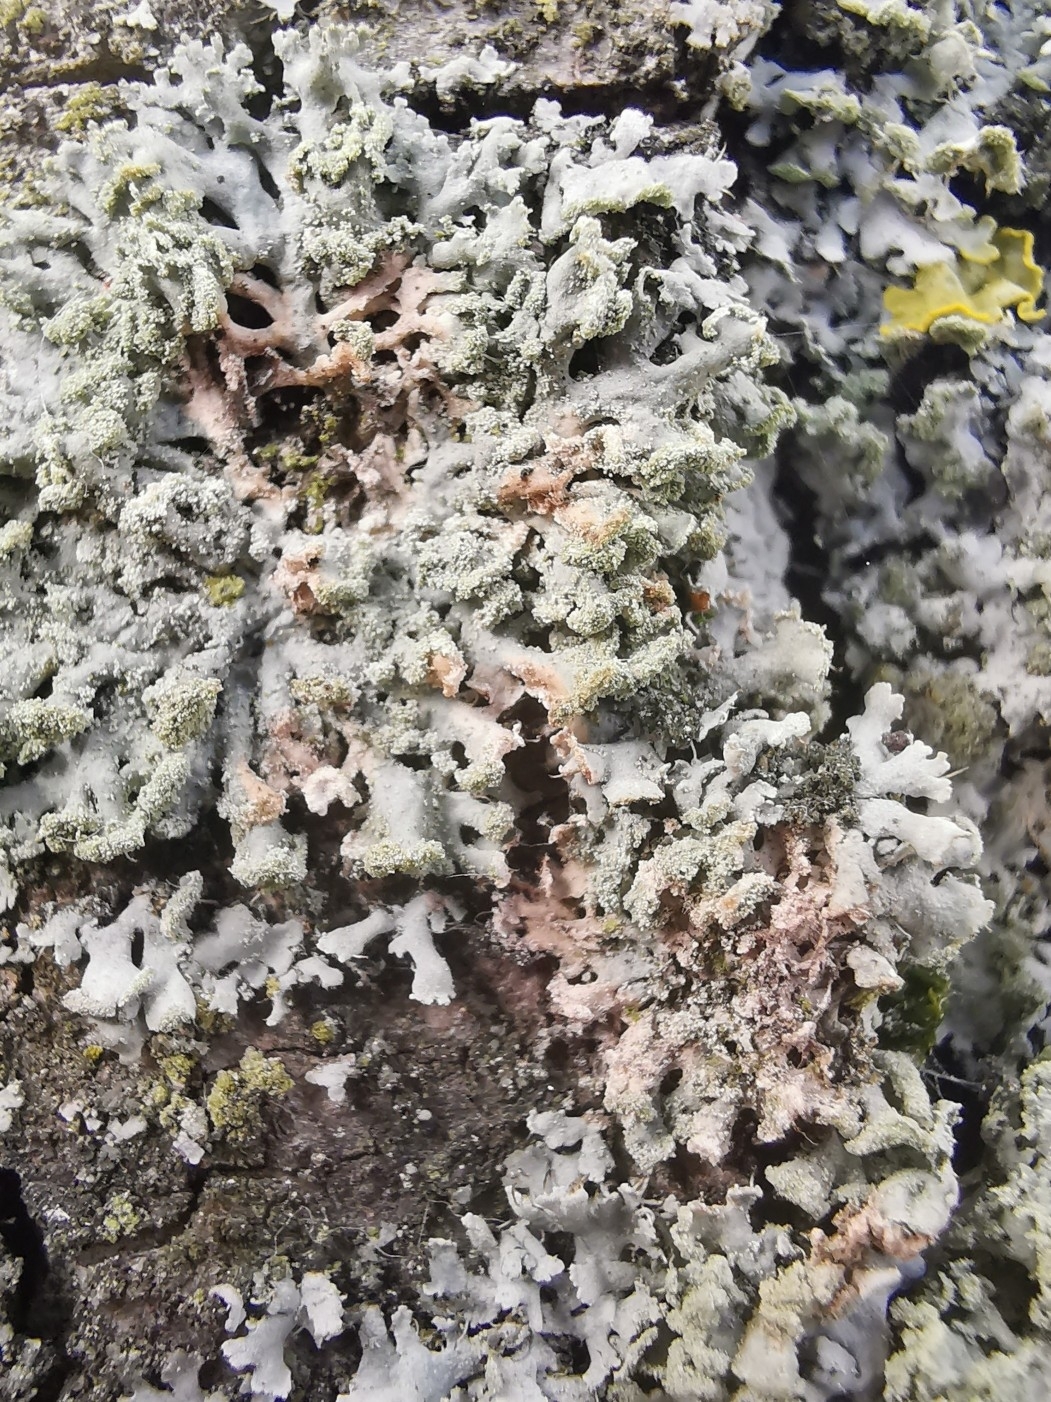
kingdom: Fungi
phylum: Basidiomycota
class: Agaricomycetes
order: Corticiales
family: Corticiaceae
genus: Erythricium
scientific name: Erythricium aurantiacum
